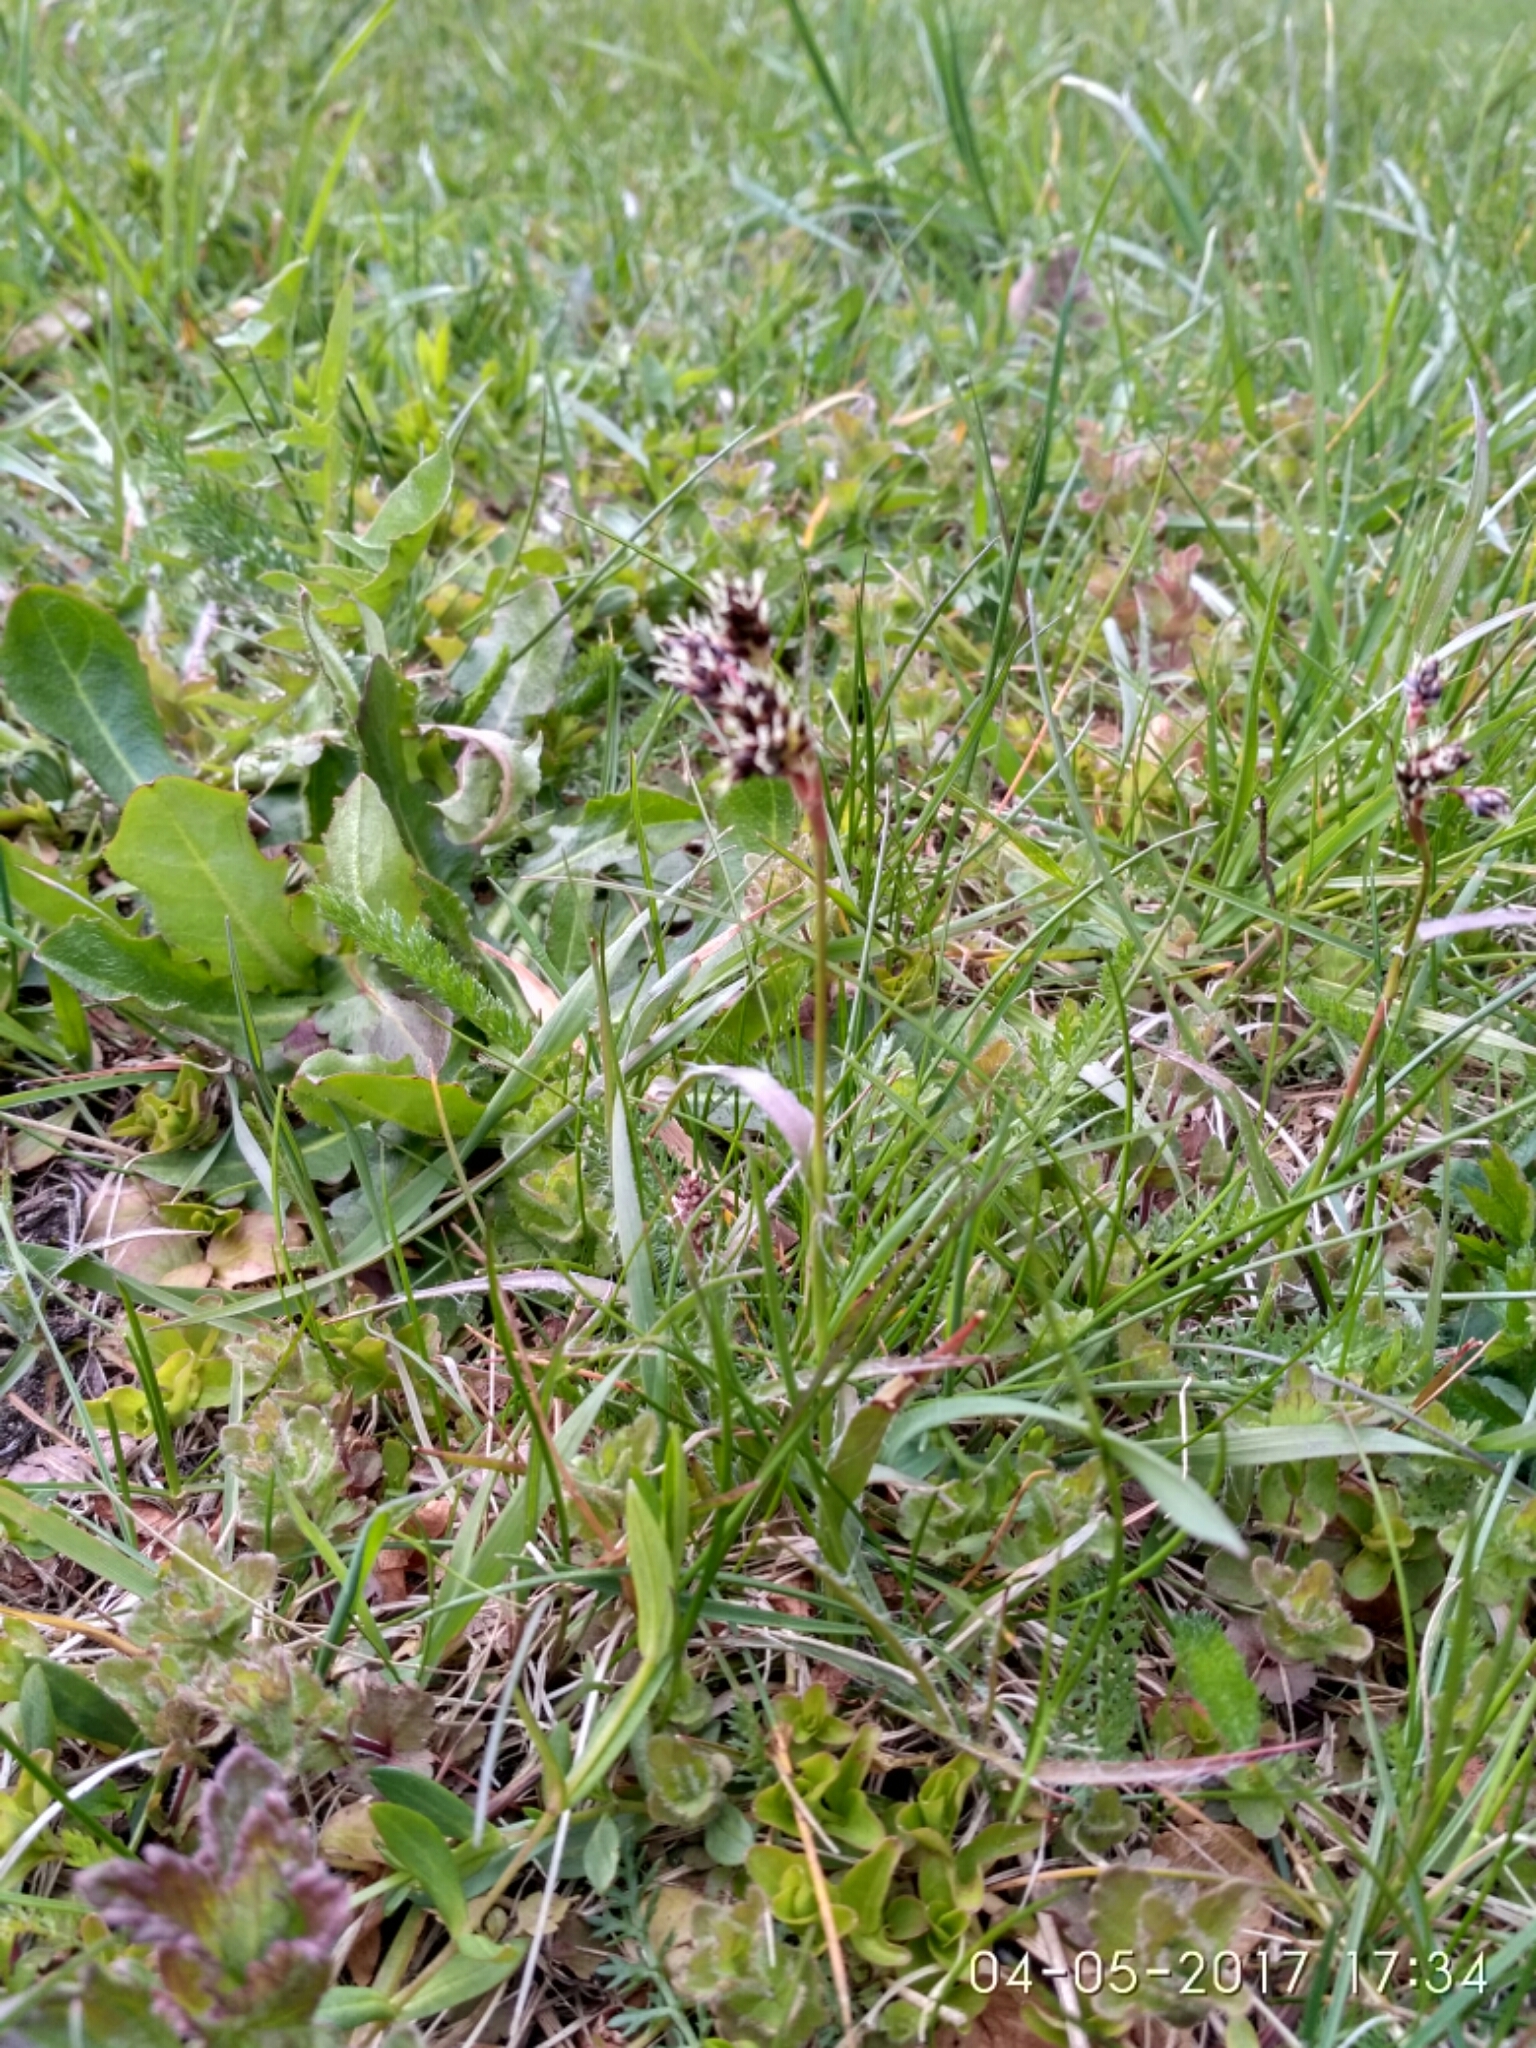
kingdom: Plantae
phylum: Tracheophyta
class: Liliopsida
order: Poales
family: Juncaceae
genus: Luzula
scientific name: Luzula campestris
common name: Field wood-rush
